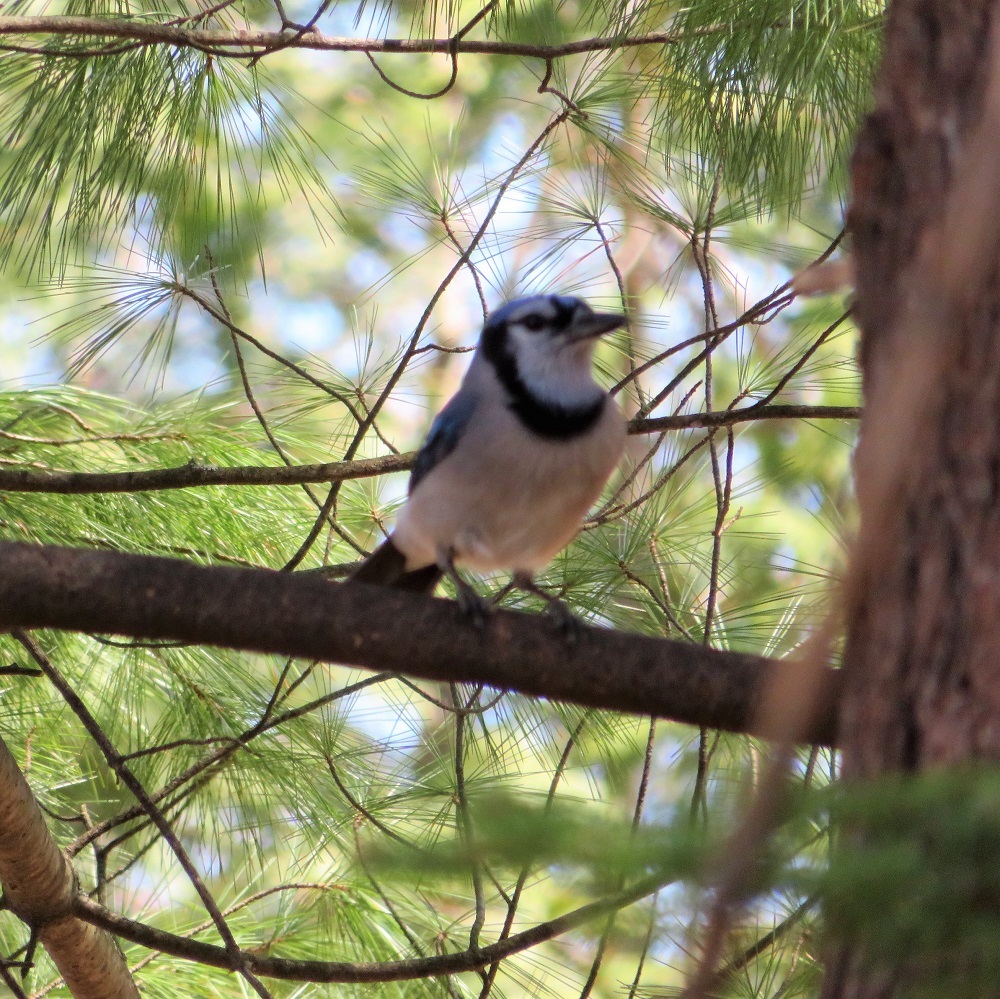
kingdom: Animalia
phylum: Chordata
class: Aves
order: Passeriformes
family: Corvidae
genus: Cyanocitta
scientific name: Cyanocitta cristata
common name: Blue jay
